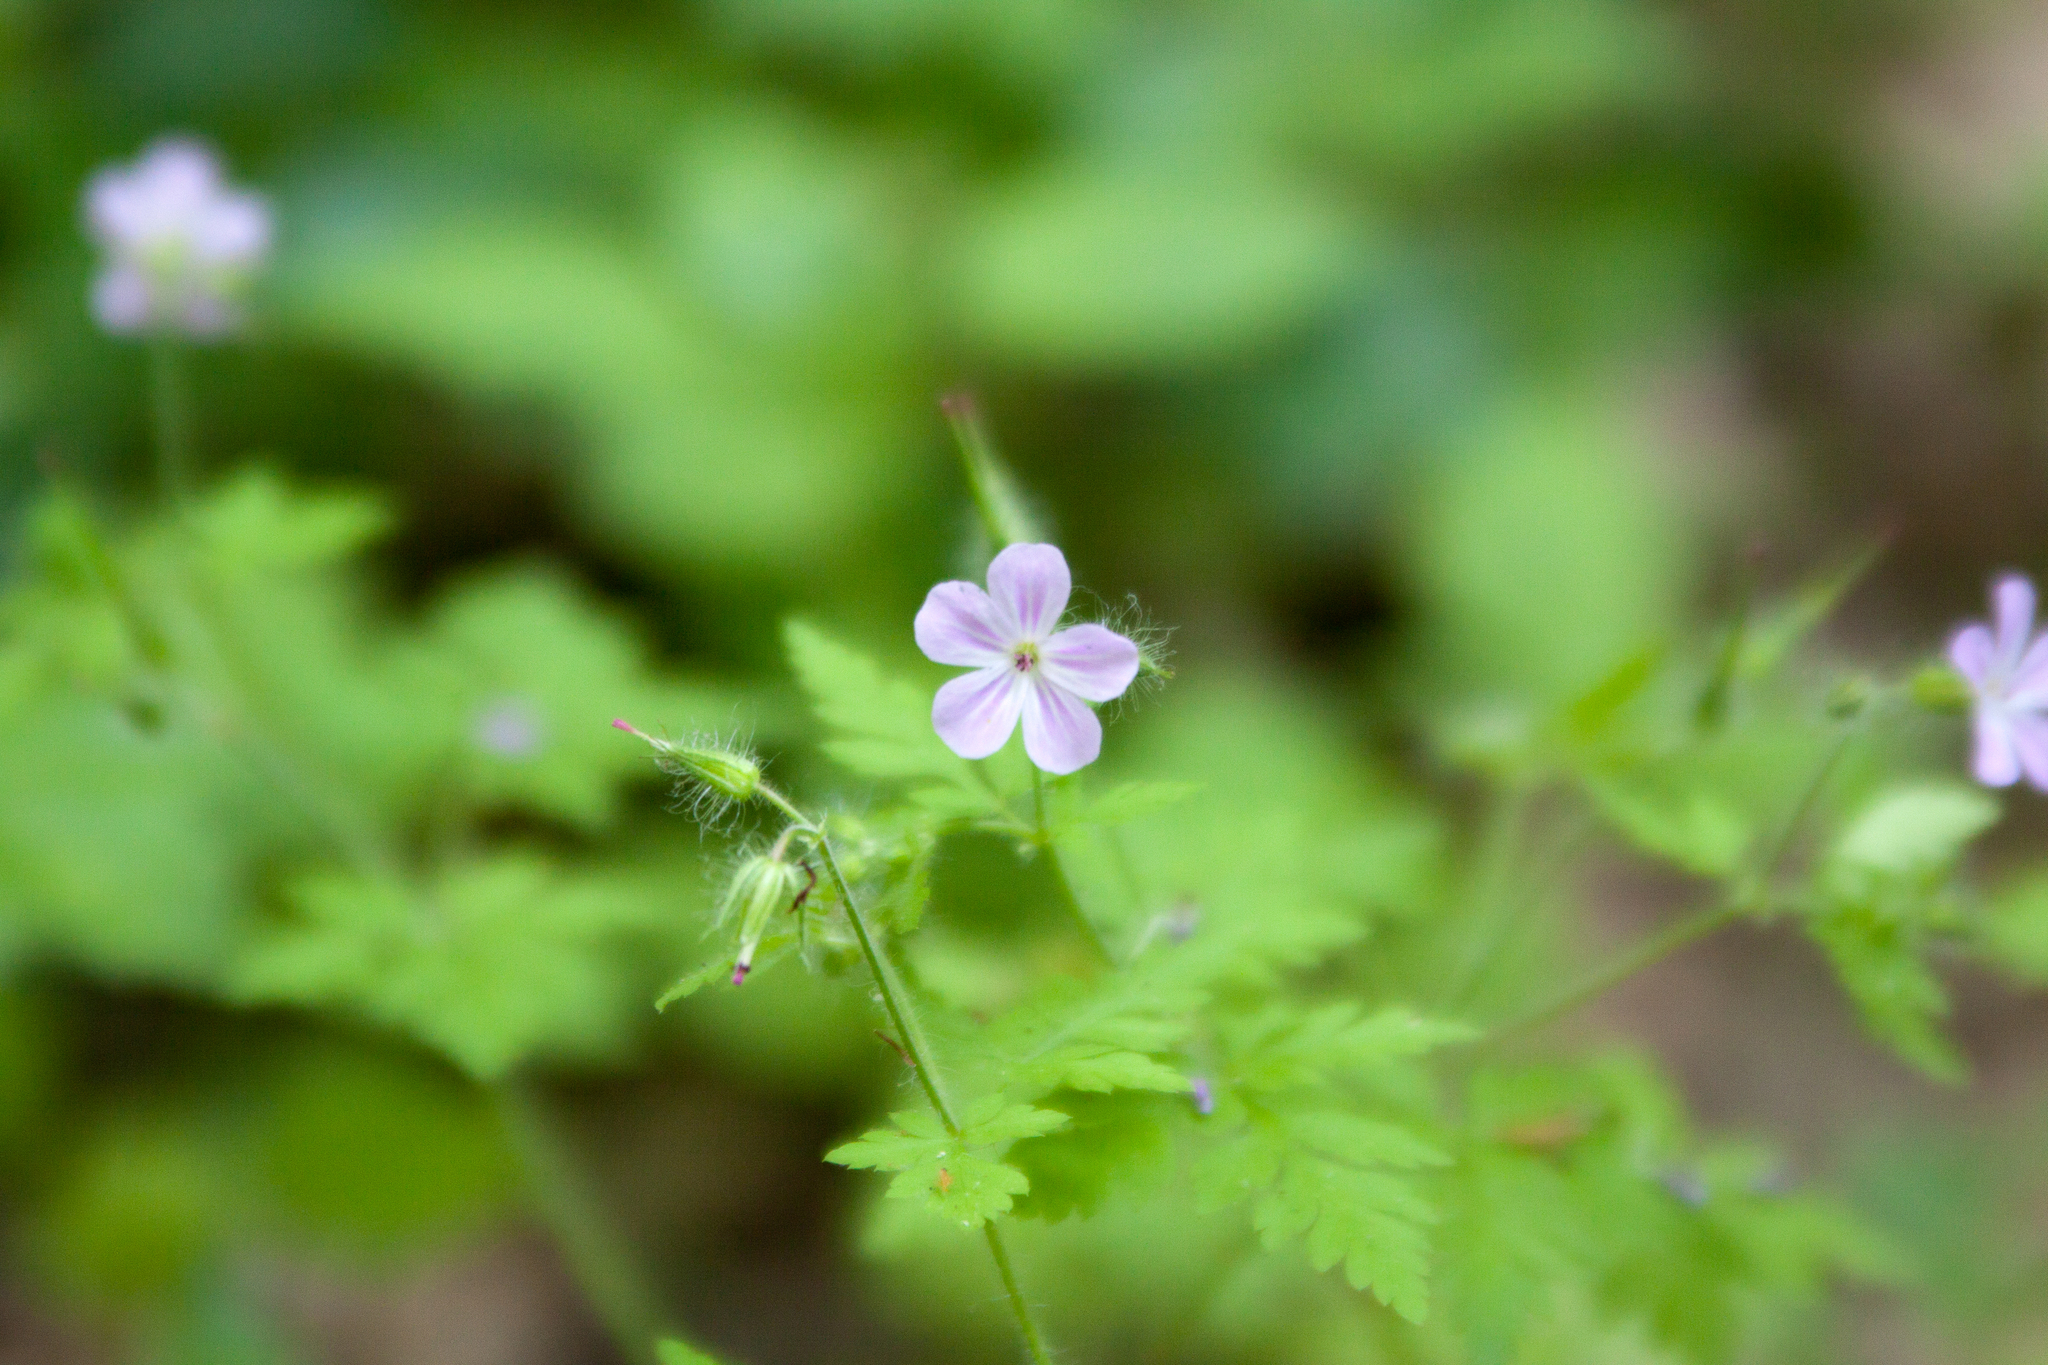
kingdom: Plantae
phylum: Tracheophyta
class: Magnoliopsida
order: Geraniales
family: Geraniaceae
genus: Geranium
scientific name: Geranium robertianum
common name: Herb-robert
